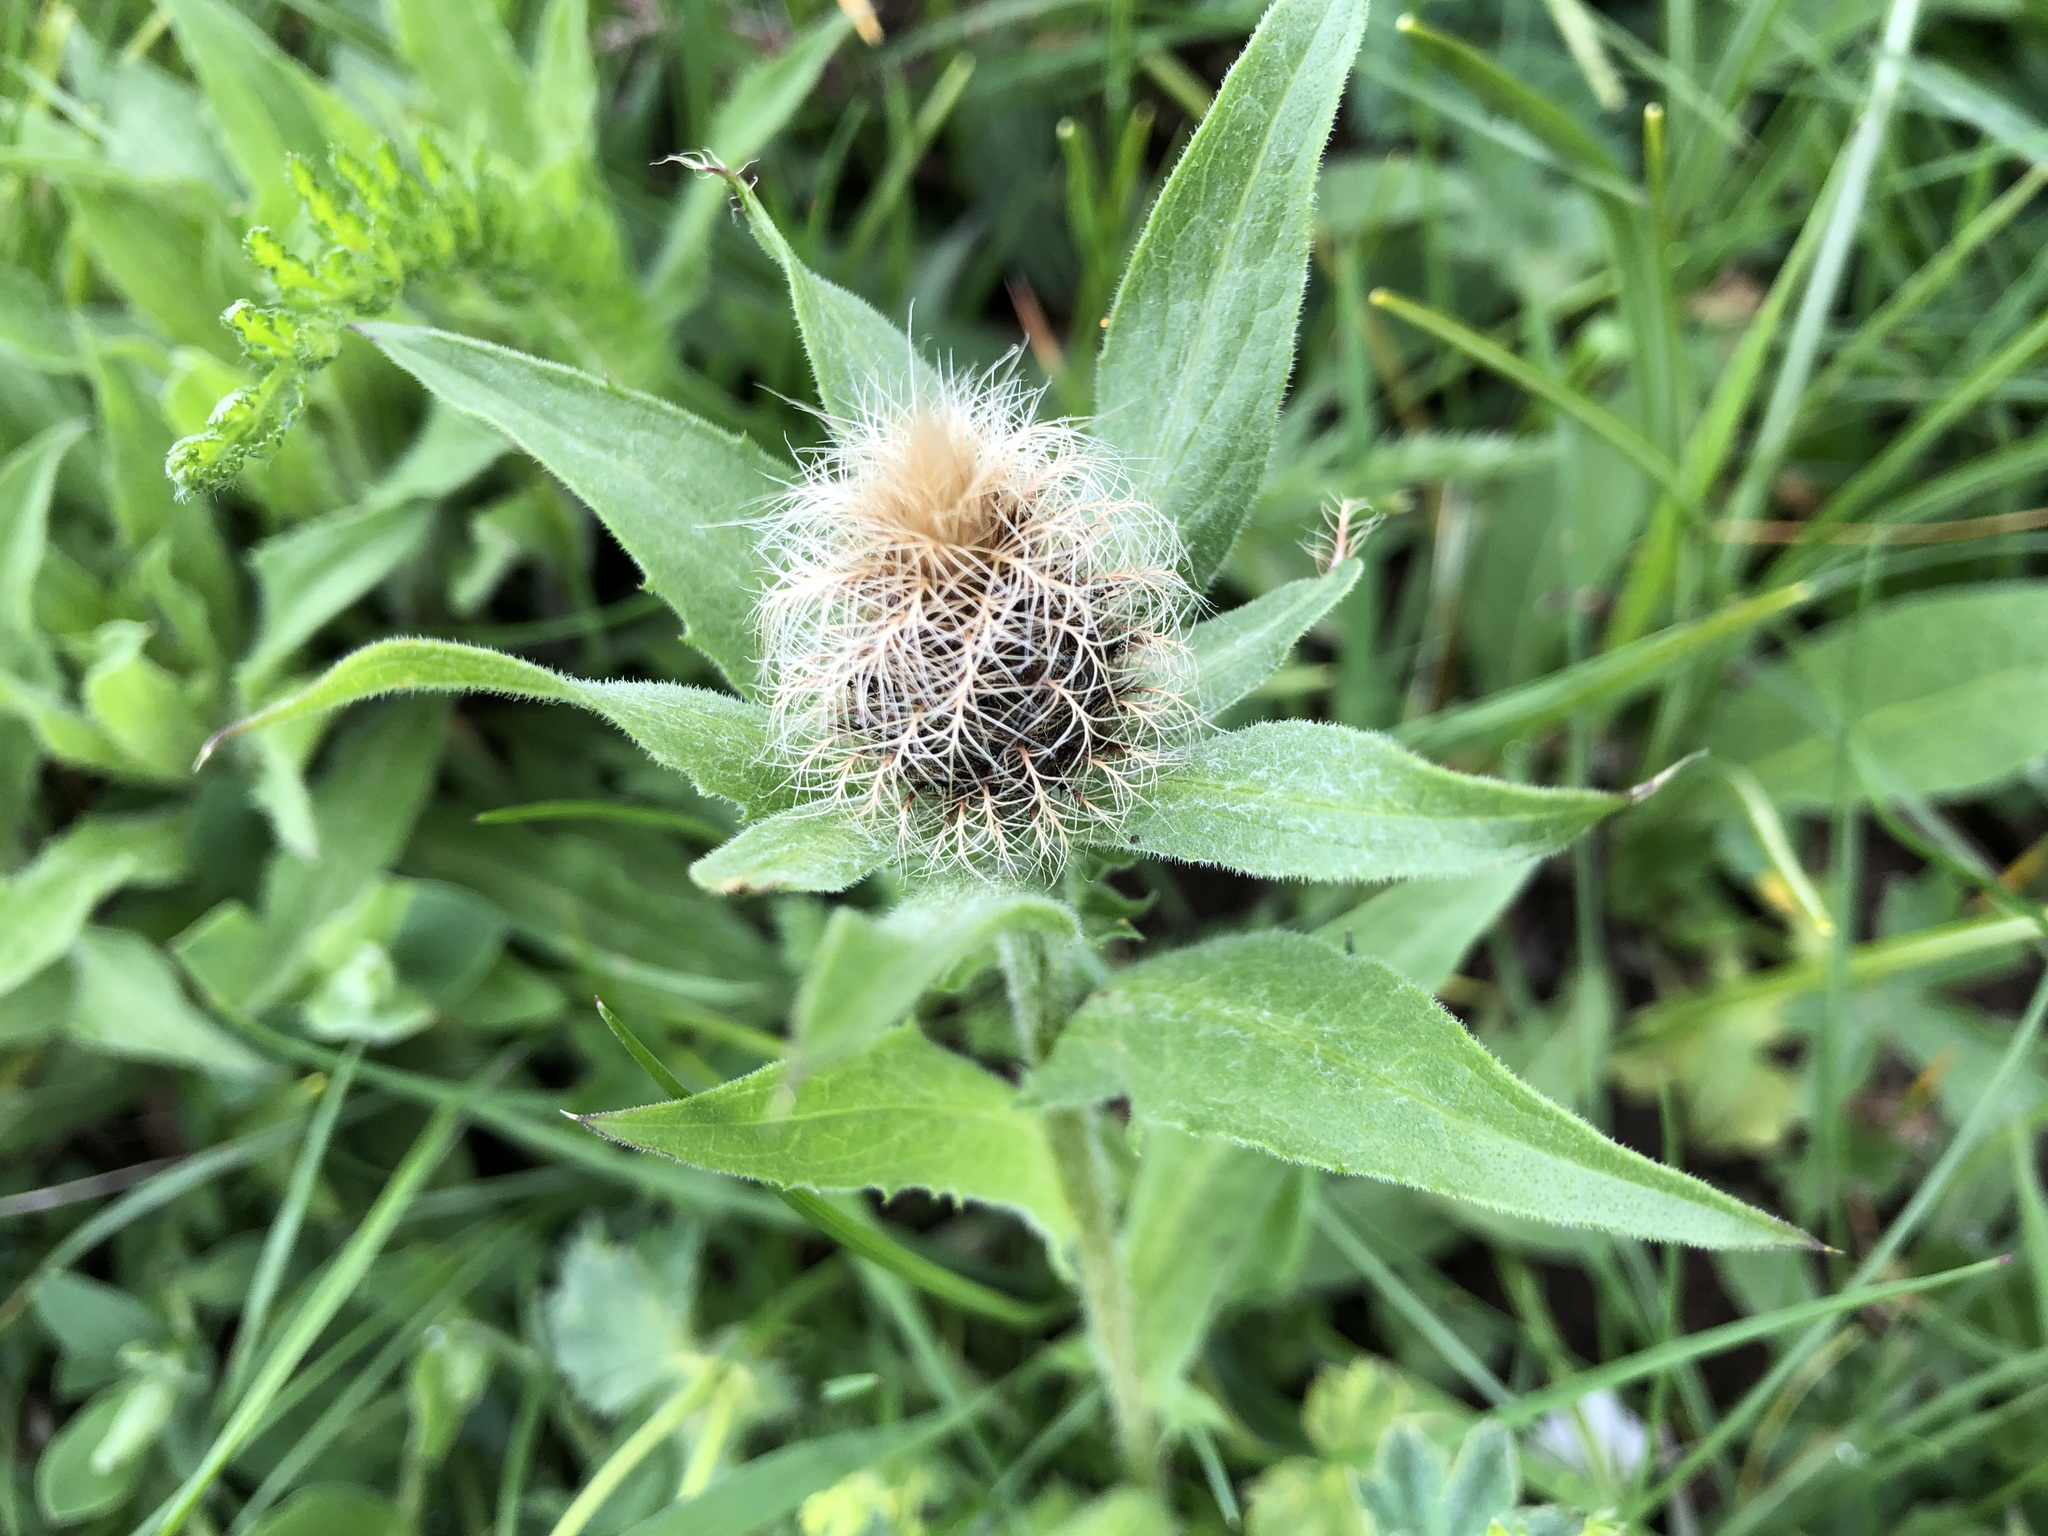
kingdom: Plantae
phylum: Tracheophyta
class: Magnoliopsida
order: Asterales
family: Asteraceae
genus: Centaurea
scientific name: Centaurea nervosa
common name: Singleflower knapweed
